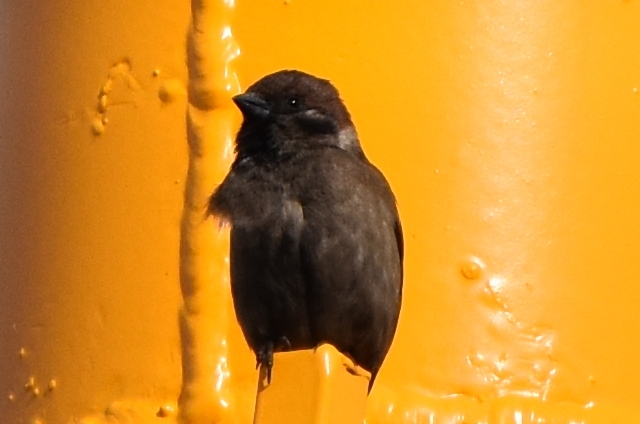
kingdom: Animalia
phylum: Chordata
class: Aves
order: Passeriformes
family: Passeridae
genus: Passer
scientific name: Passer montanus
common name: Eurasian tree sparrow
